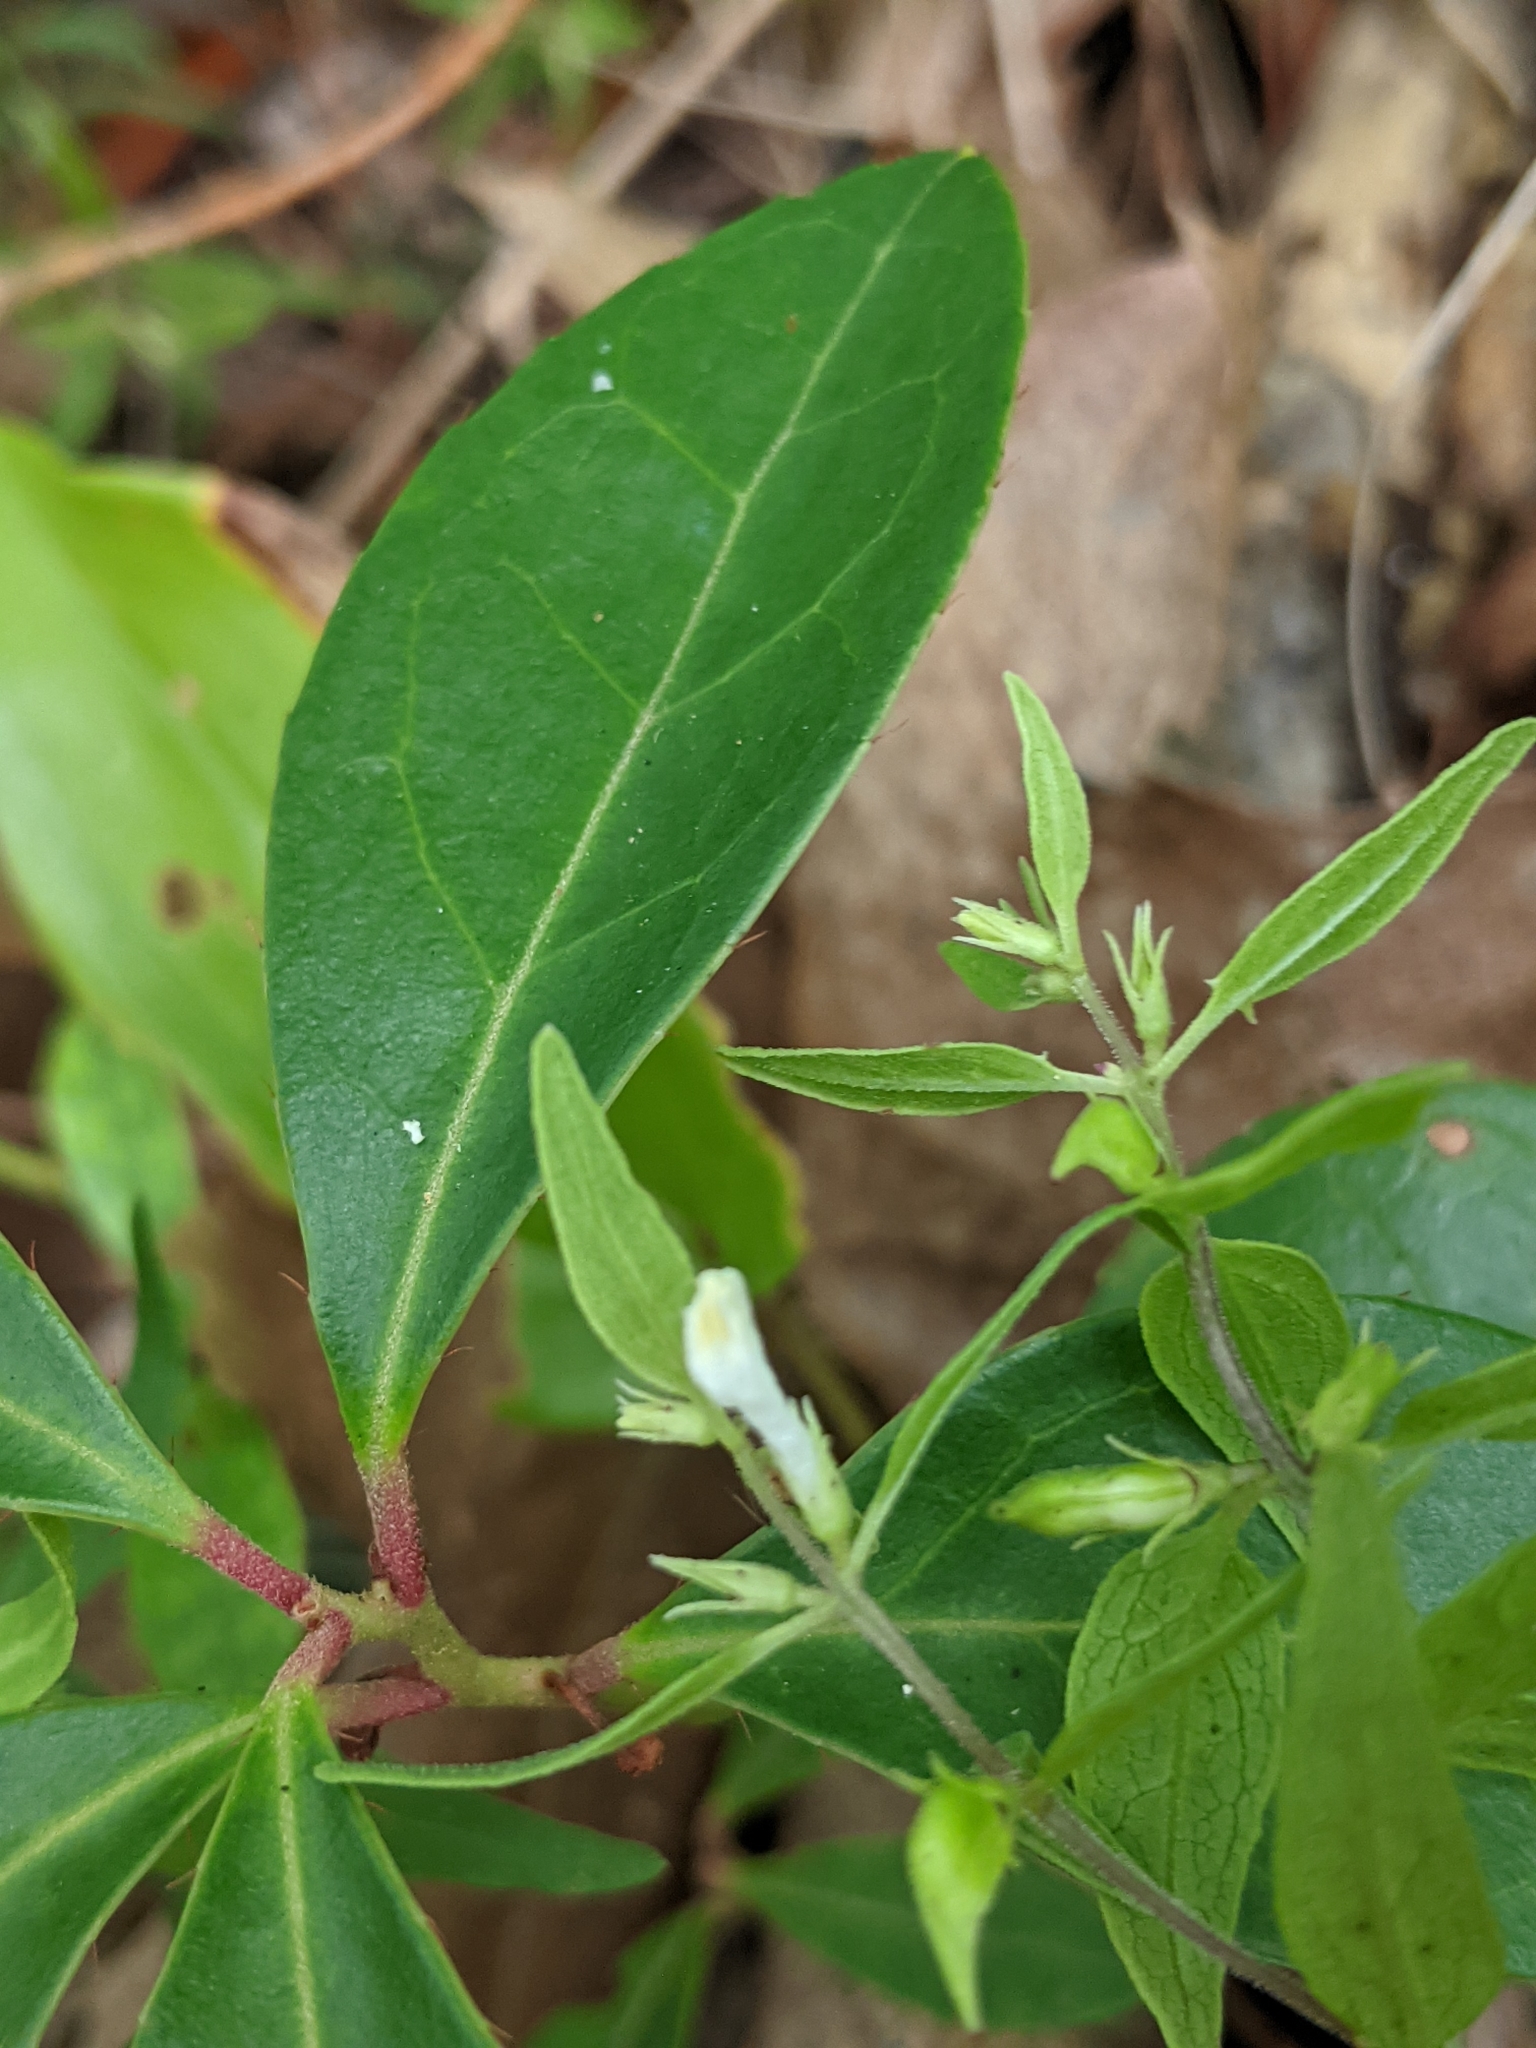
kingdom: Plantae
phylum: Tracheophyta
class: Magnoliopsida
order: Lamiales
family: Orobanchaceae
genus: Melampyrum
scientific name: Melampyrum lineare
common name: American cow-wheat
